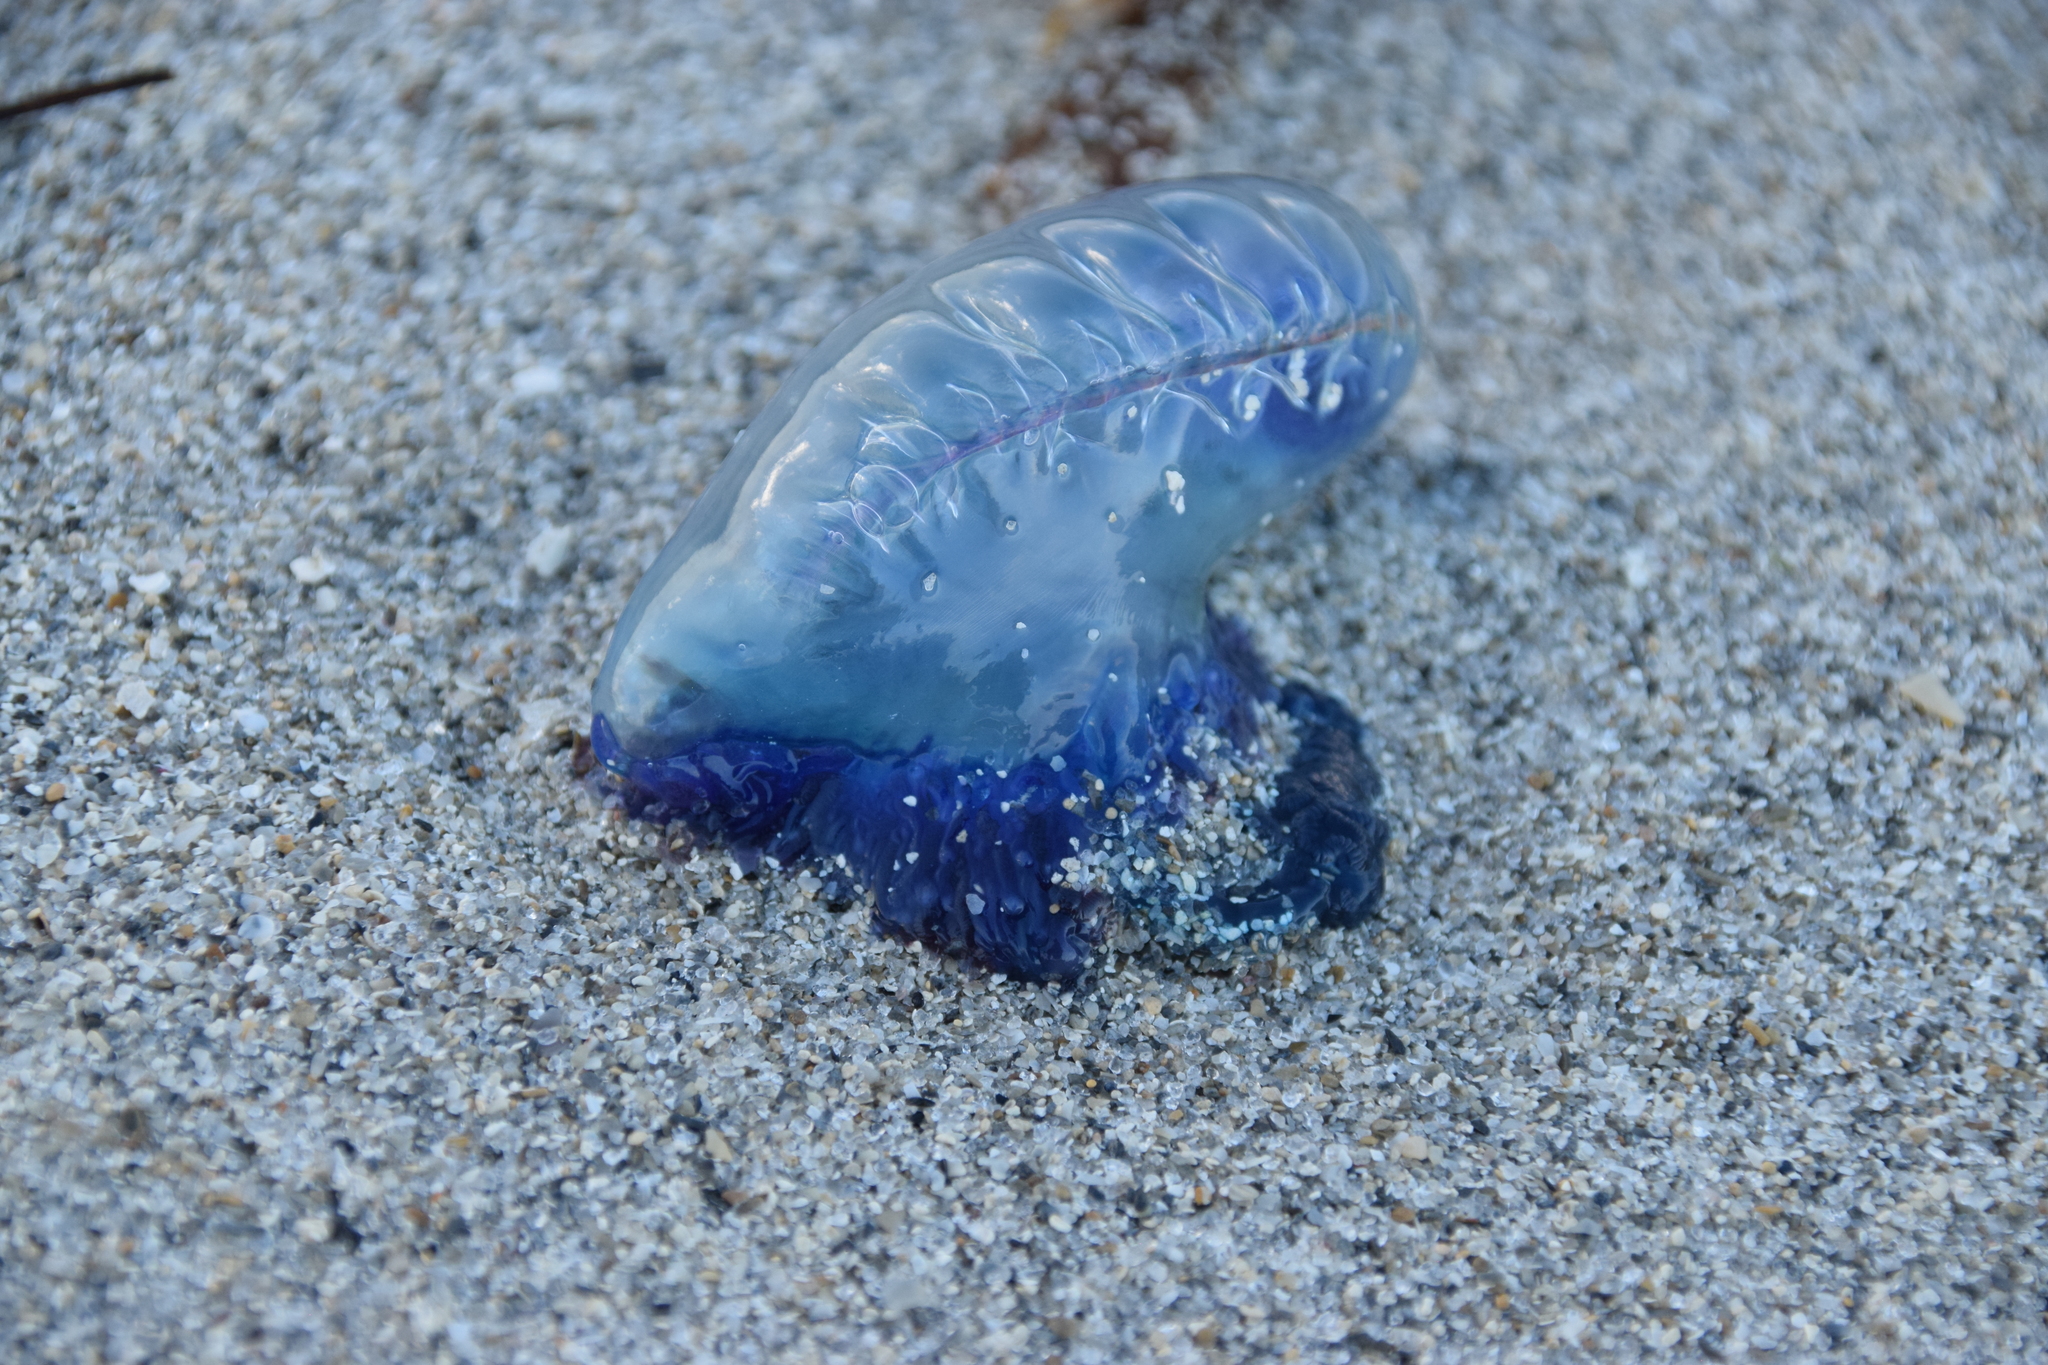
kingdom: Animalia
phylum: Cnidaria
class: Hydrozoa
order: Siphonophorae
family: Physaliidae
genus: Physalia
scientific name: Physalia physalis
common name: Portuguese man-of-war
